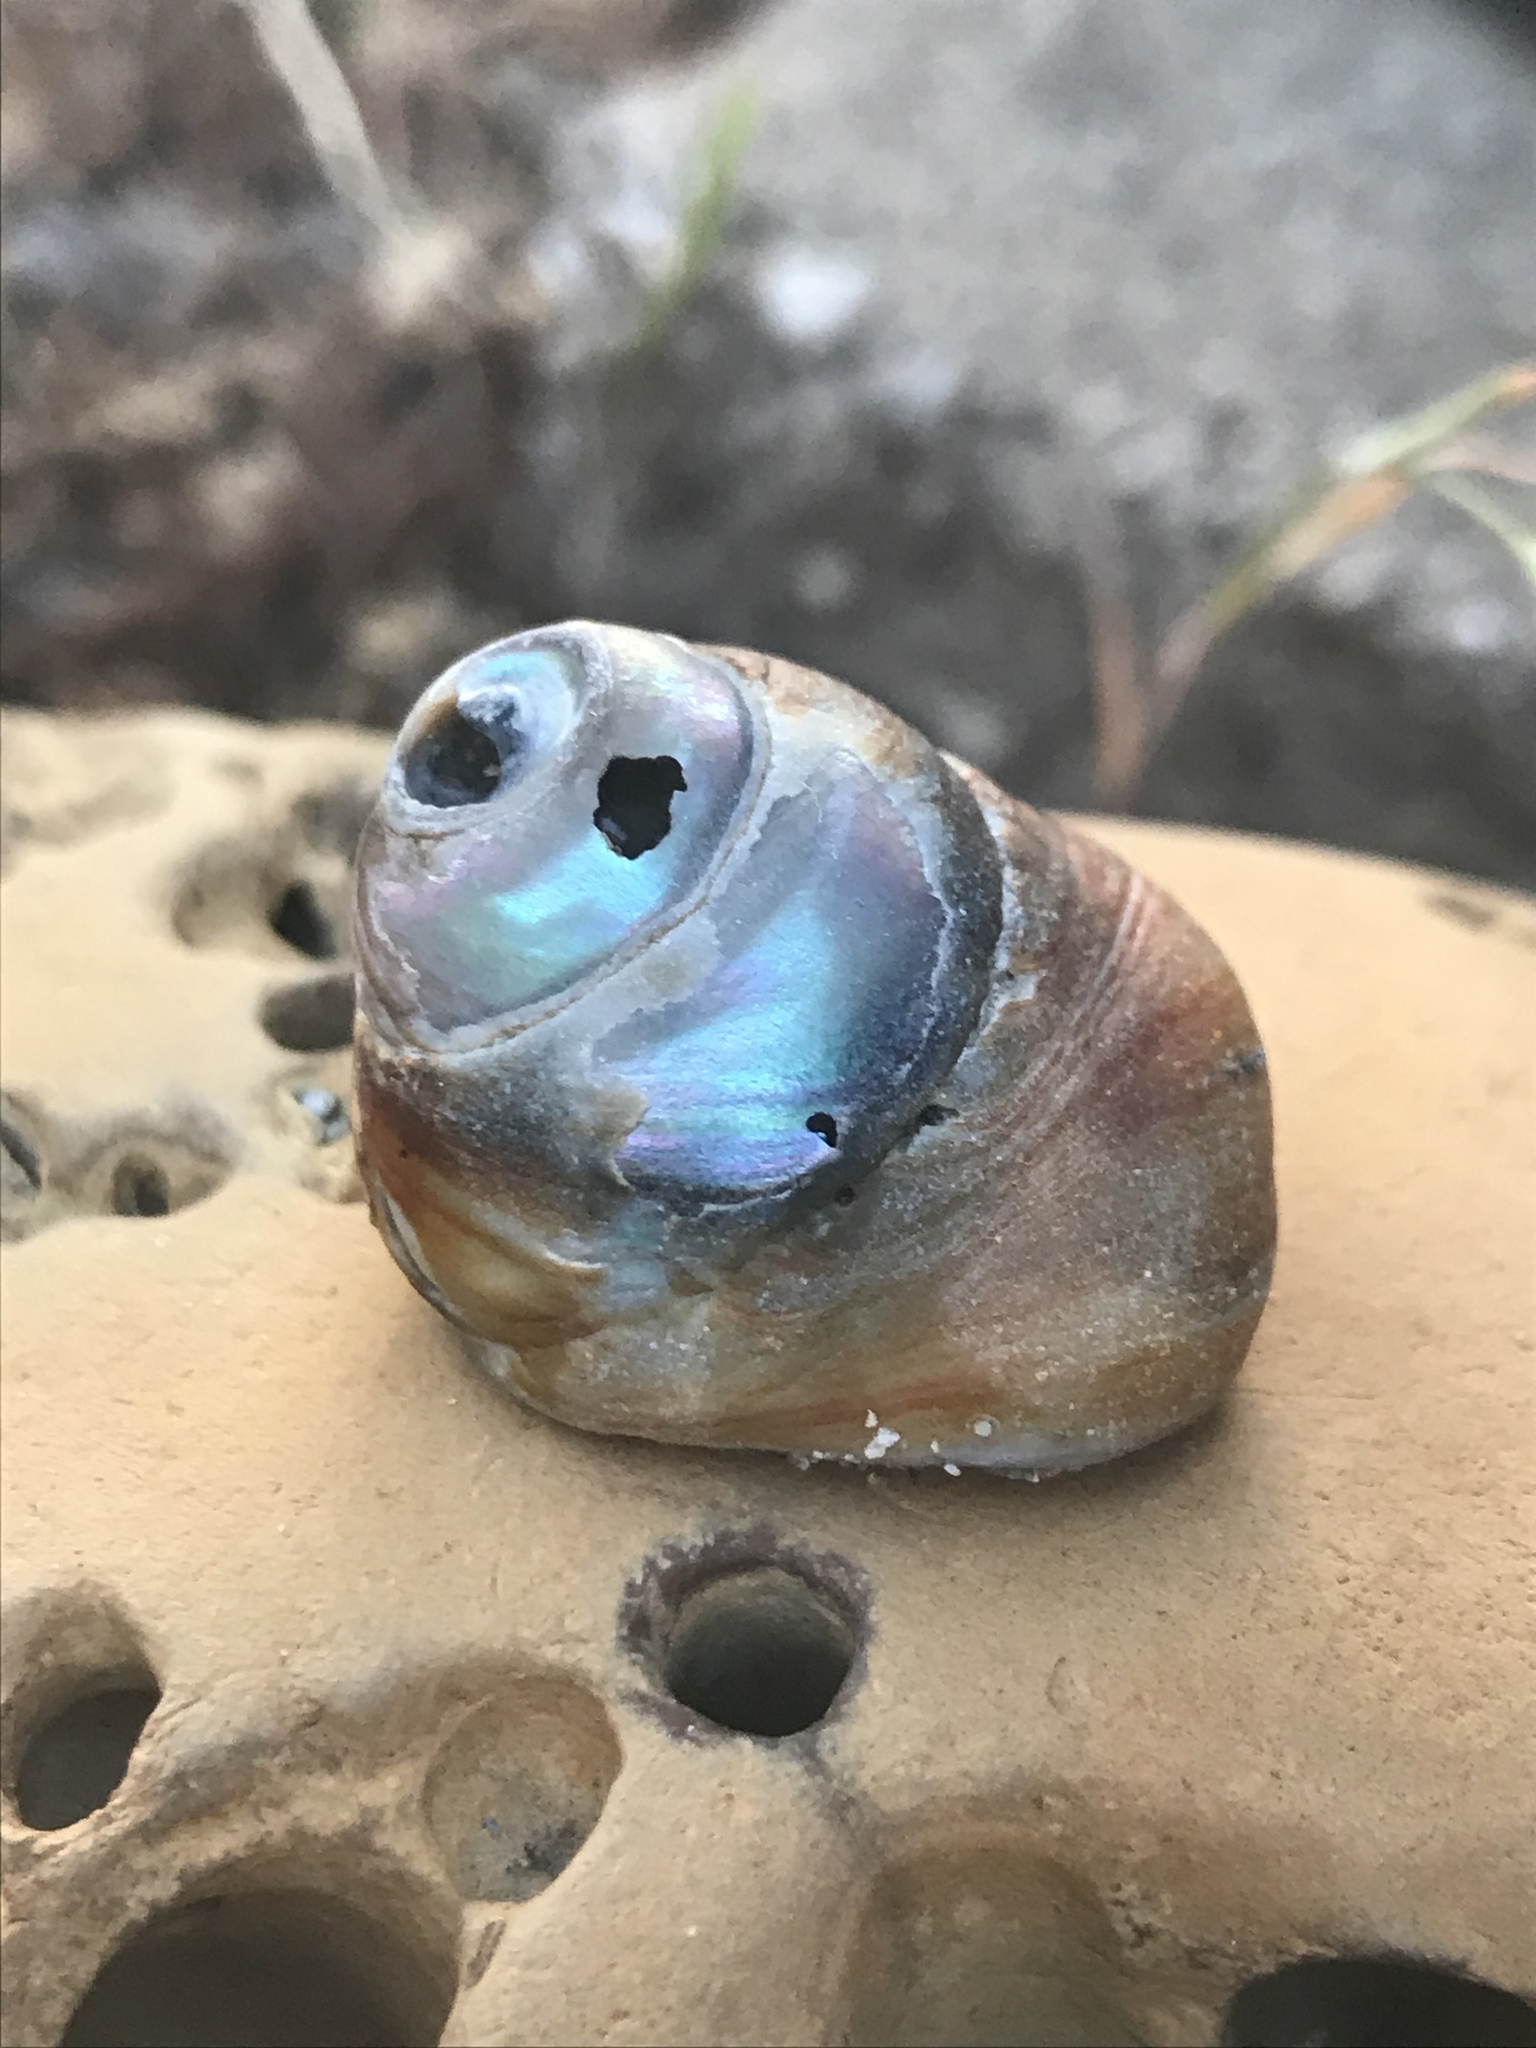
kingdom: Animalia
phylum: Mollusca
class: Gastropoda
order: Trochida
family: Tegulidae
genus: Tegula
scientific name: Tegula brunnea
